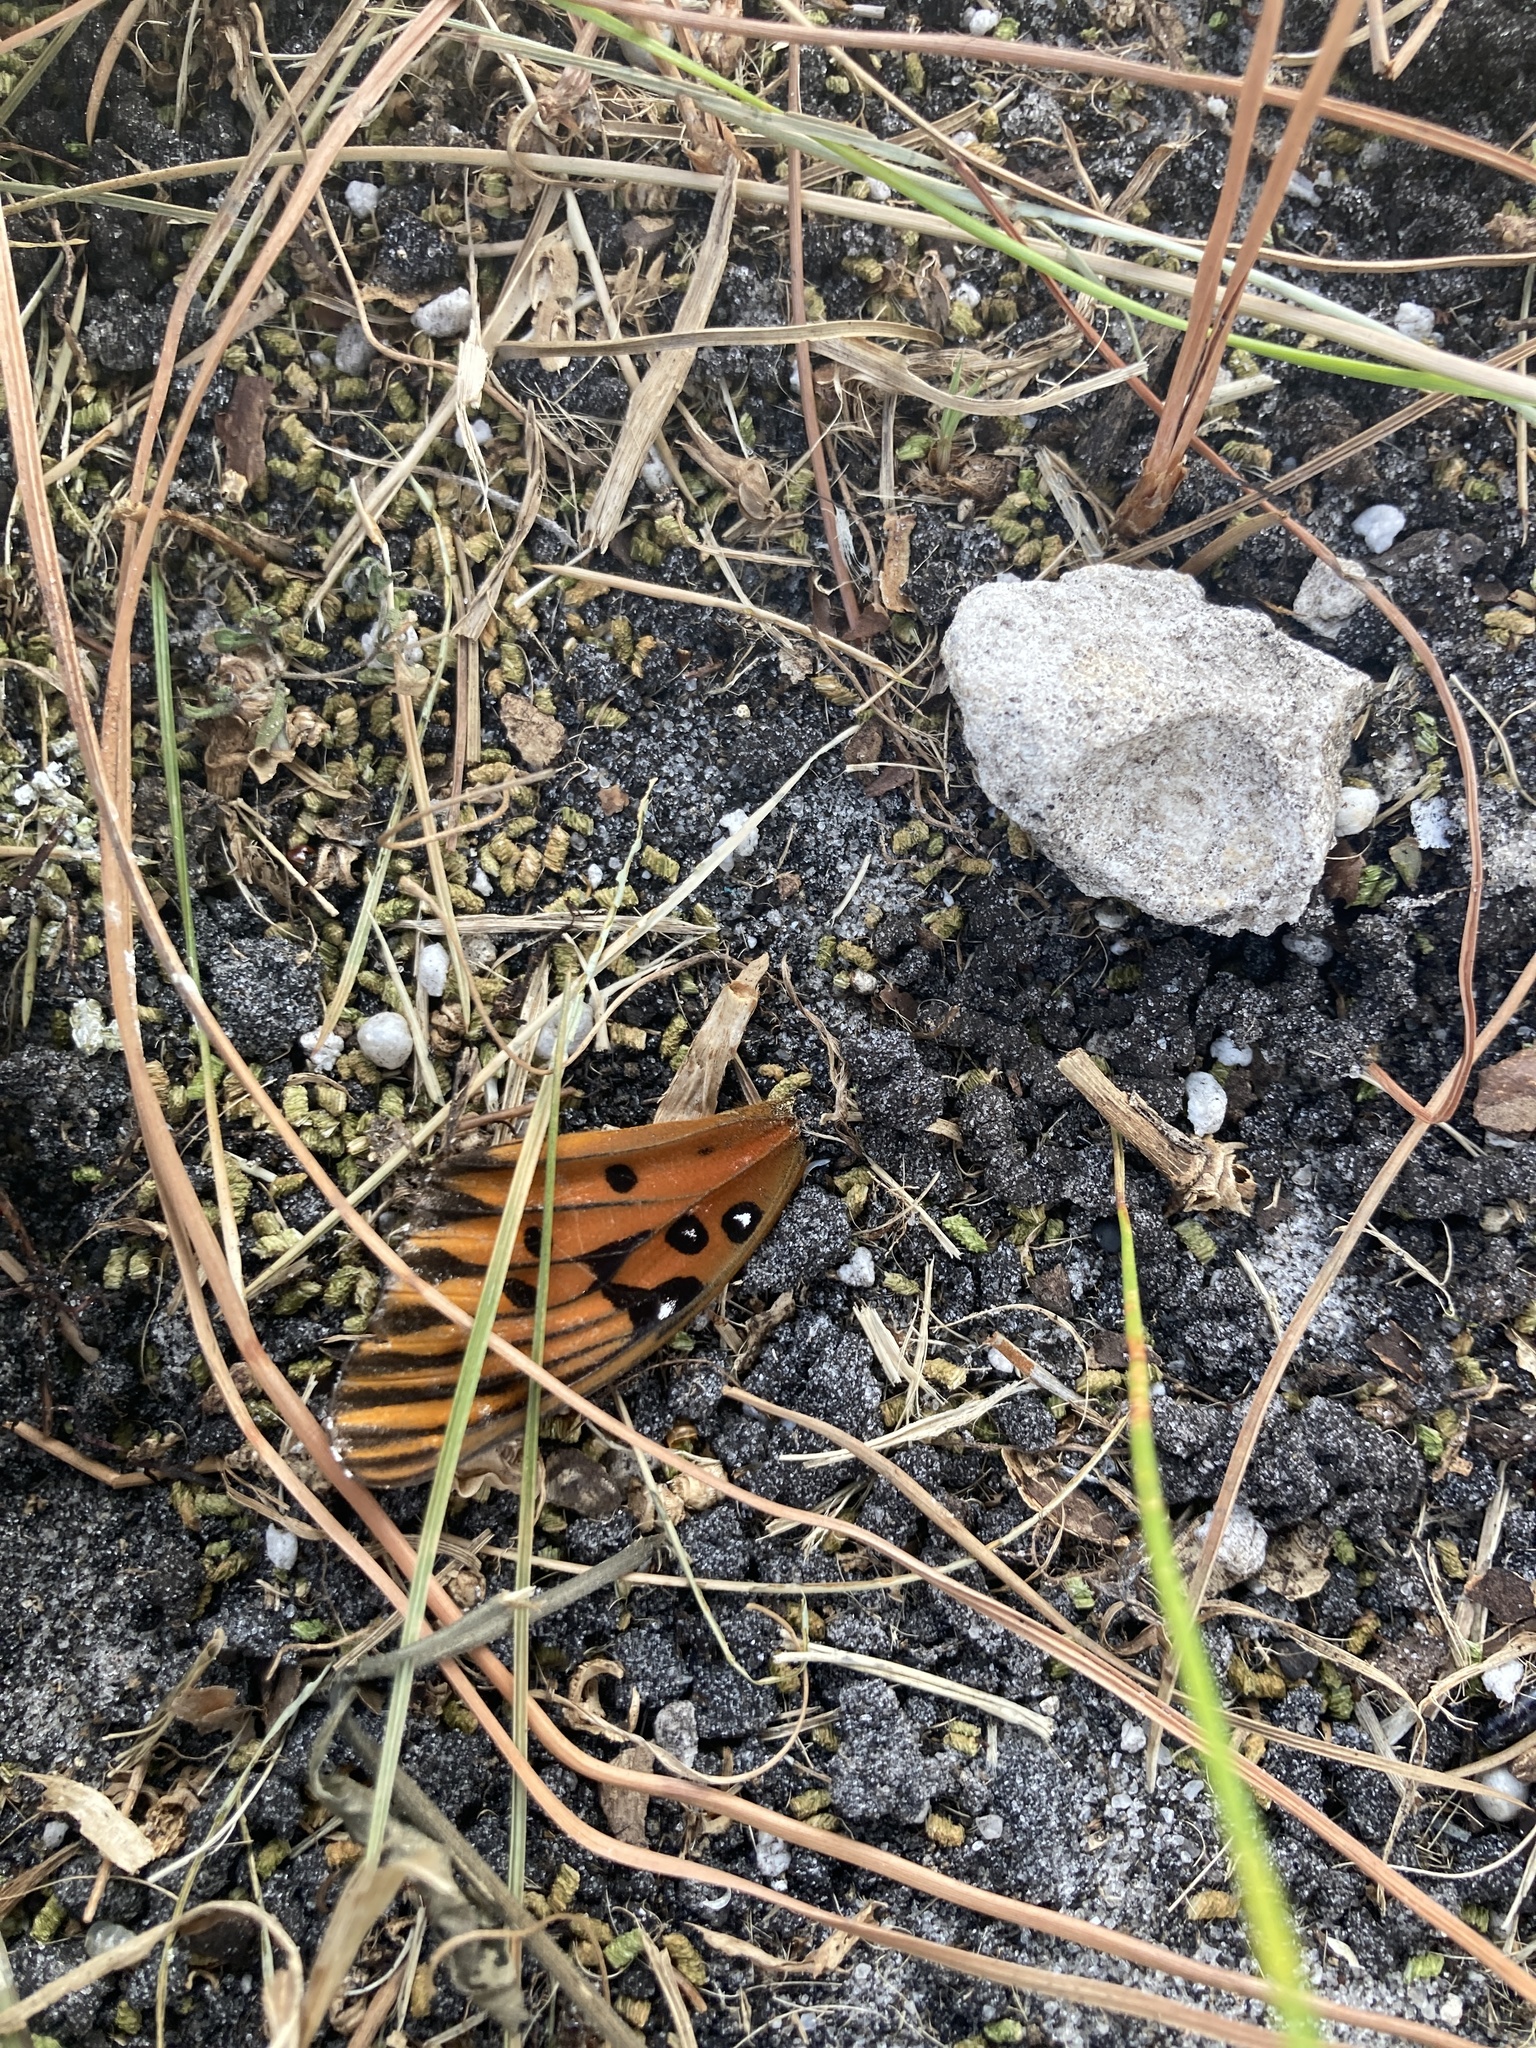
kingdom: Animalia
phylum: Arthropoda
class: Insecta
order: Lepidoptera
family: Nymphalidae
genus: Dione
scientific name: Dione vanillae
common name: Gulf fritillary
